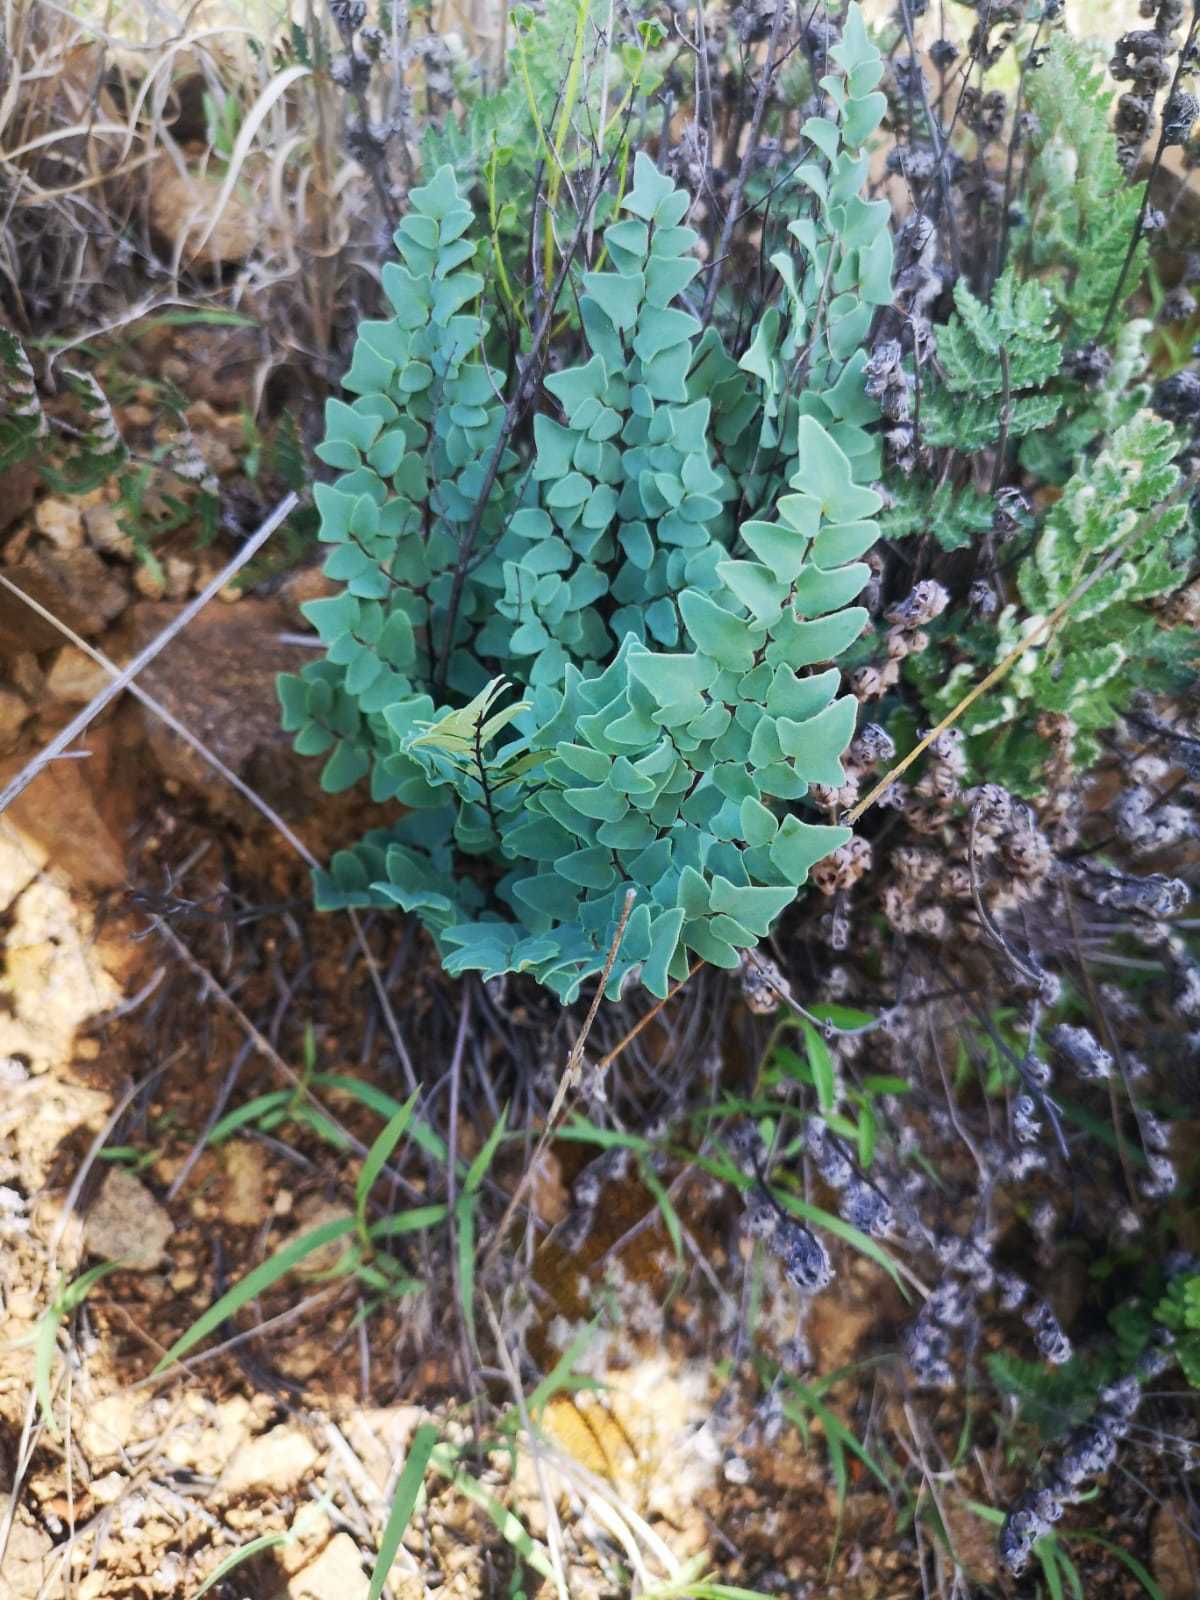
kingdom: Plantae
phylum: Tracheophyta
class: Polypodiopsida
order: Polypodiales
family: Pteridaceae
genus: Pellaea
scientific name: Pellaea calomelanos
